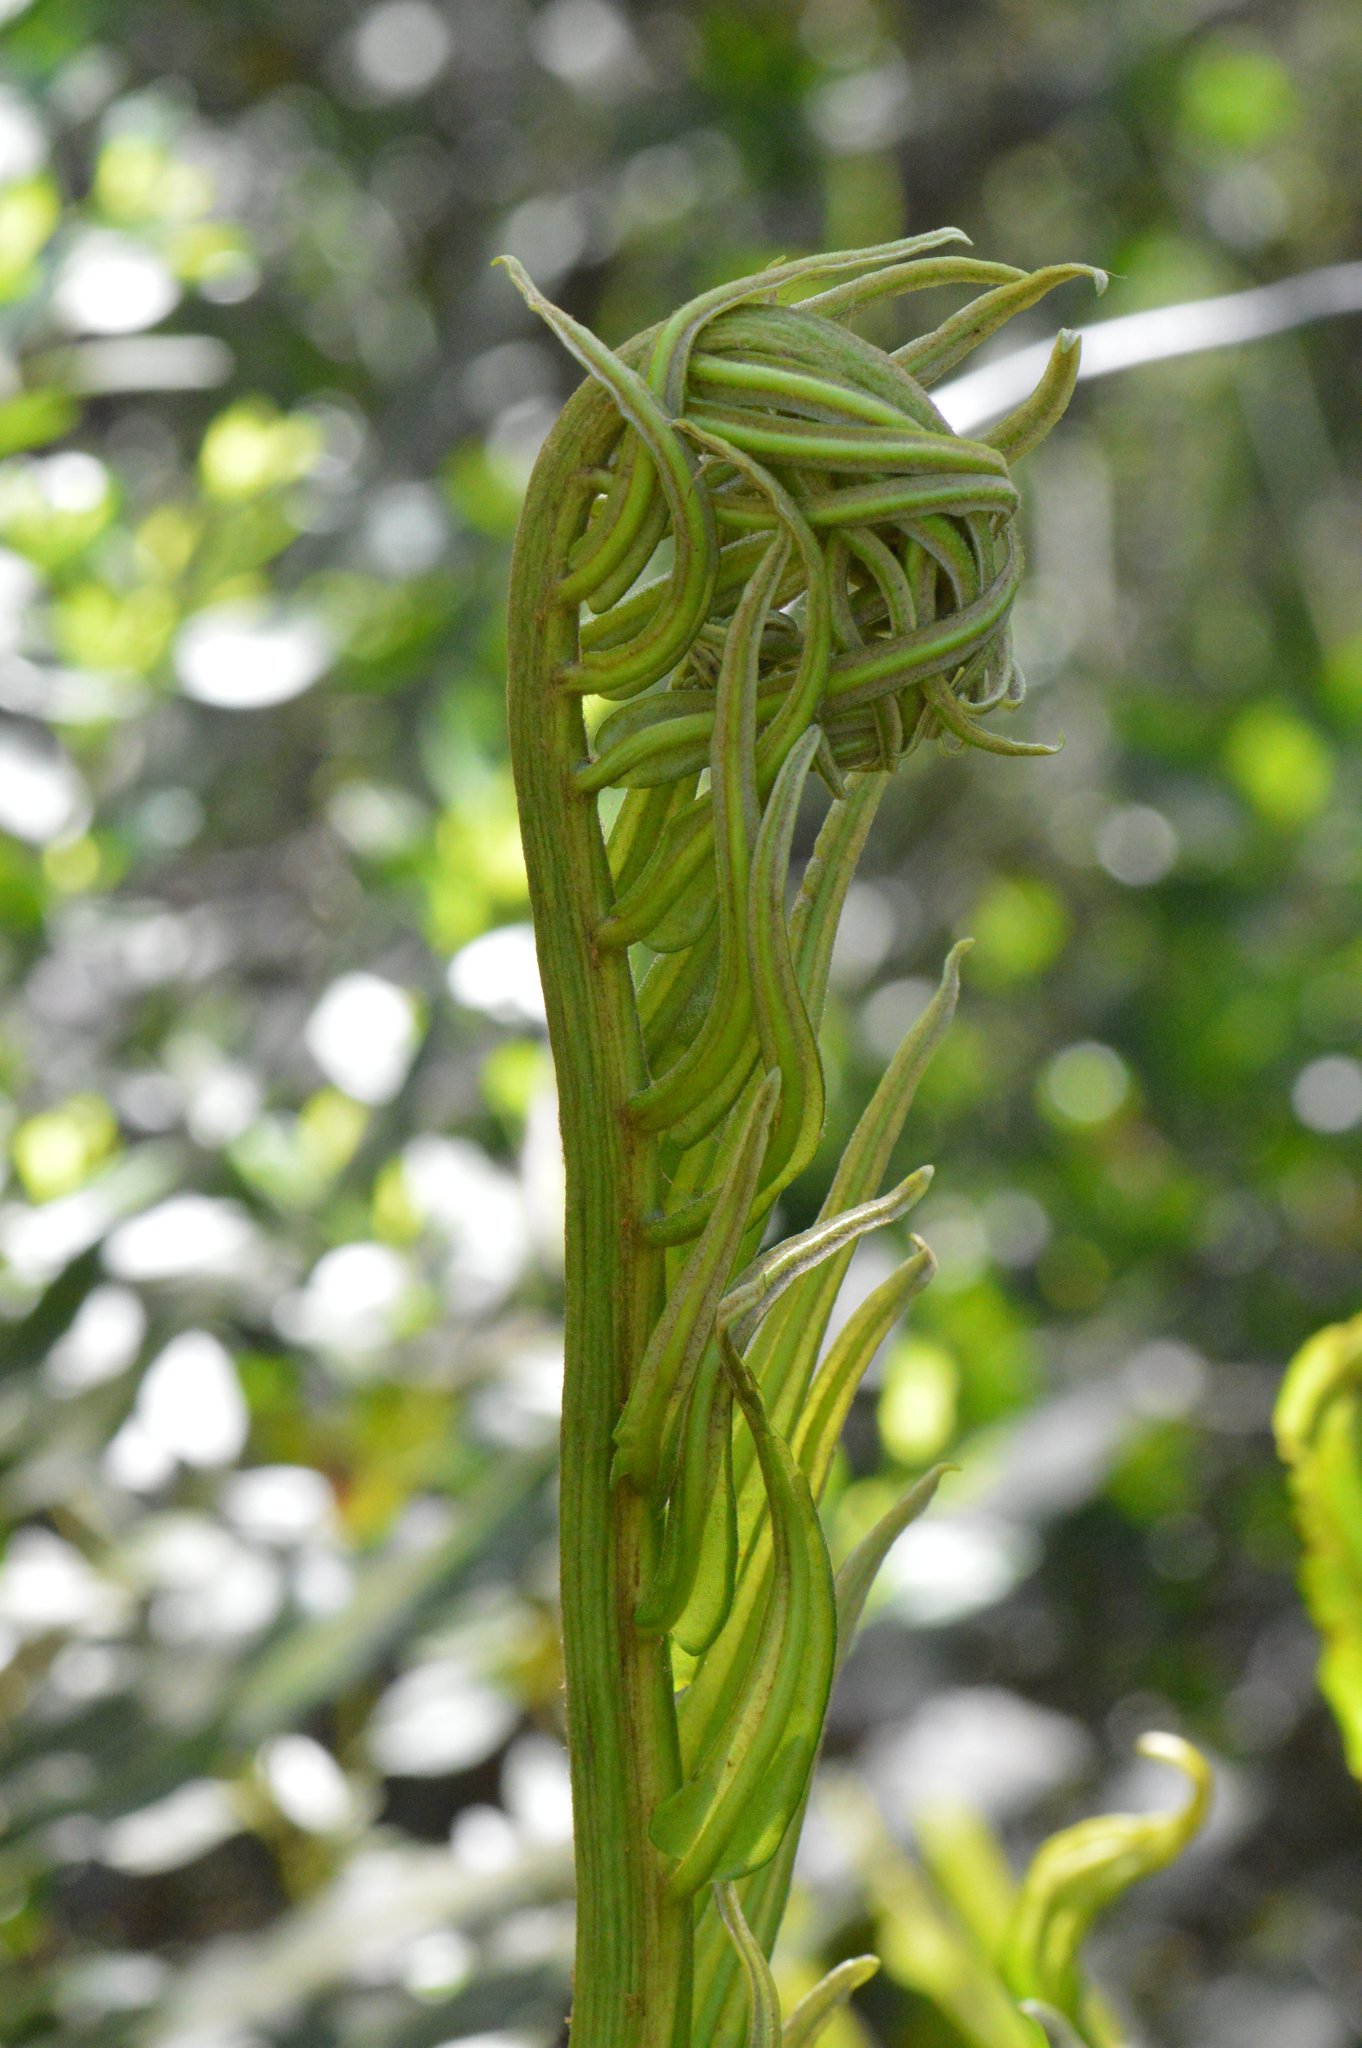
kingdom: Plantae
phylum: Tracheophyta
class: Polypodiopsida
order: Polypodiales
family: Pteridaceae
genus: Acrostichum
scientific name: Acrostichum danaeifolium
